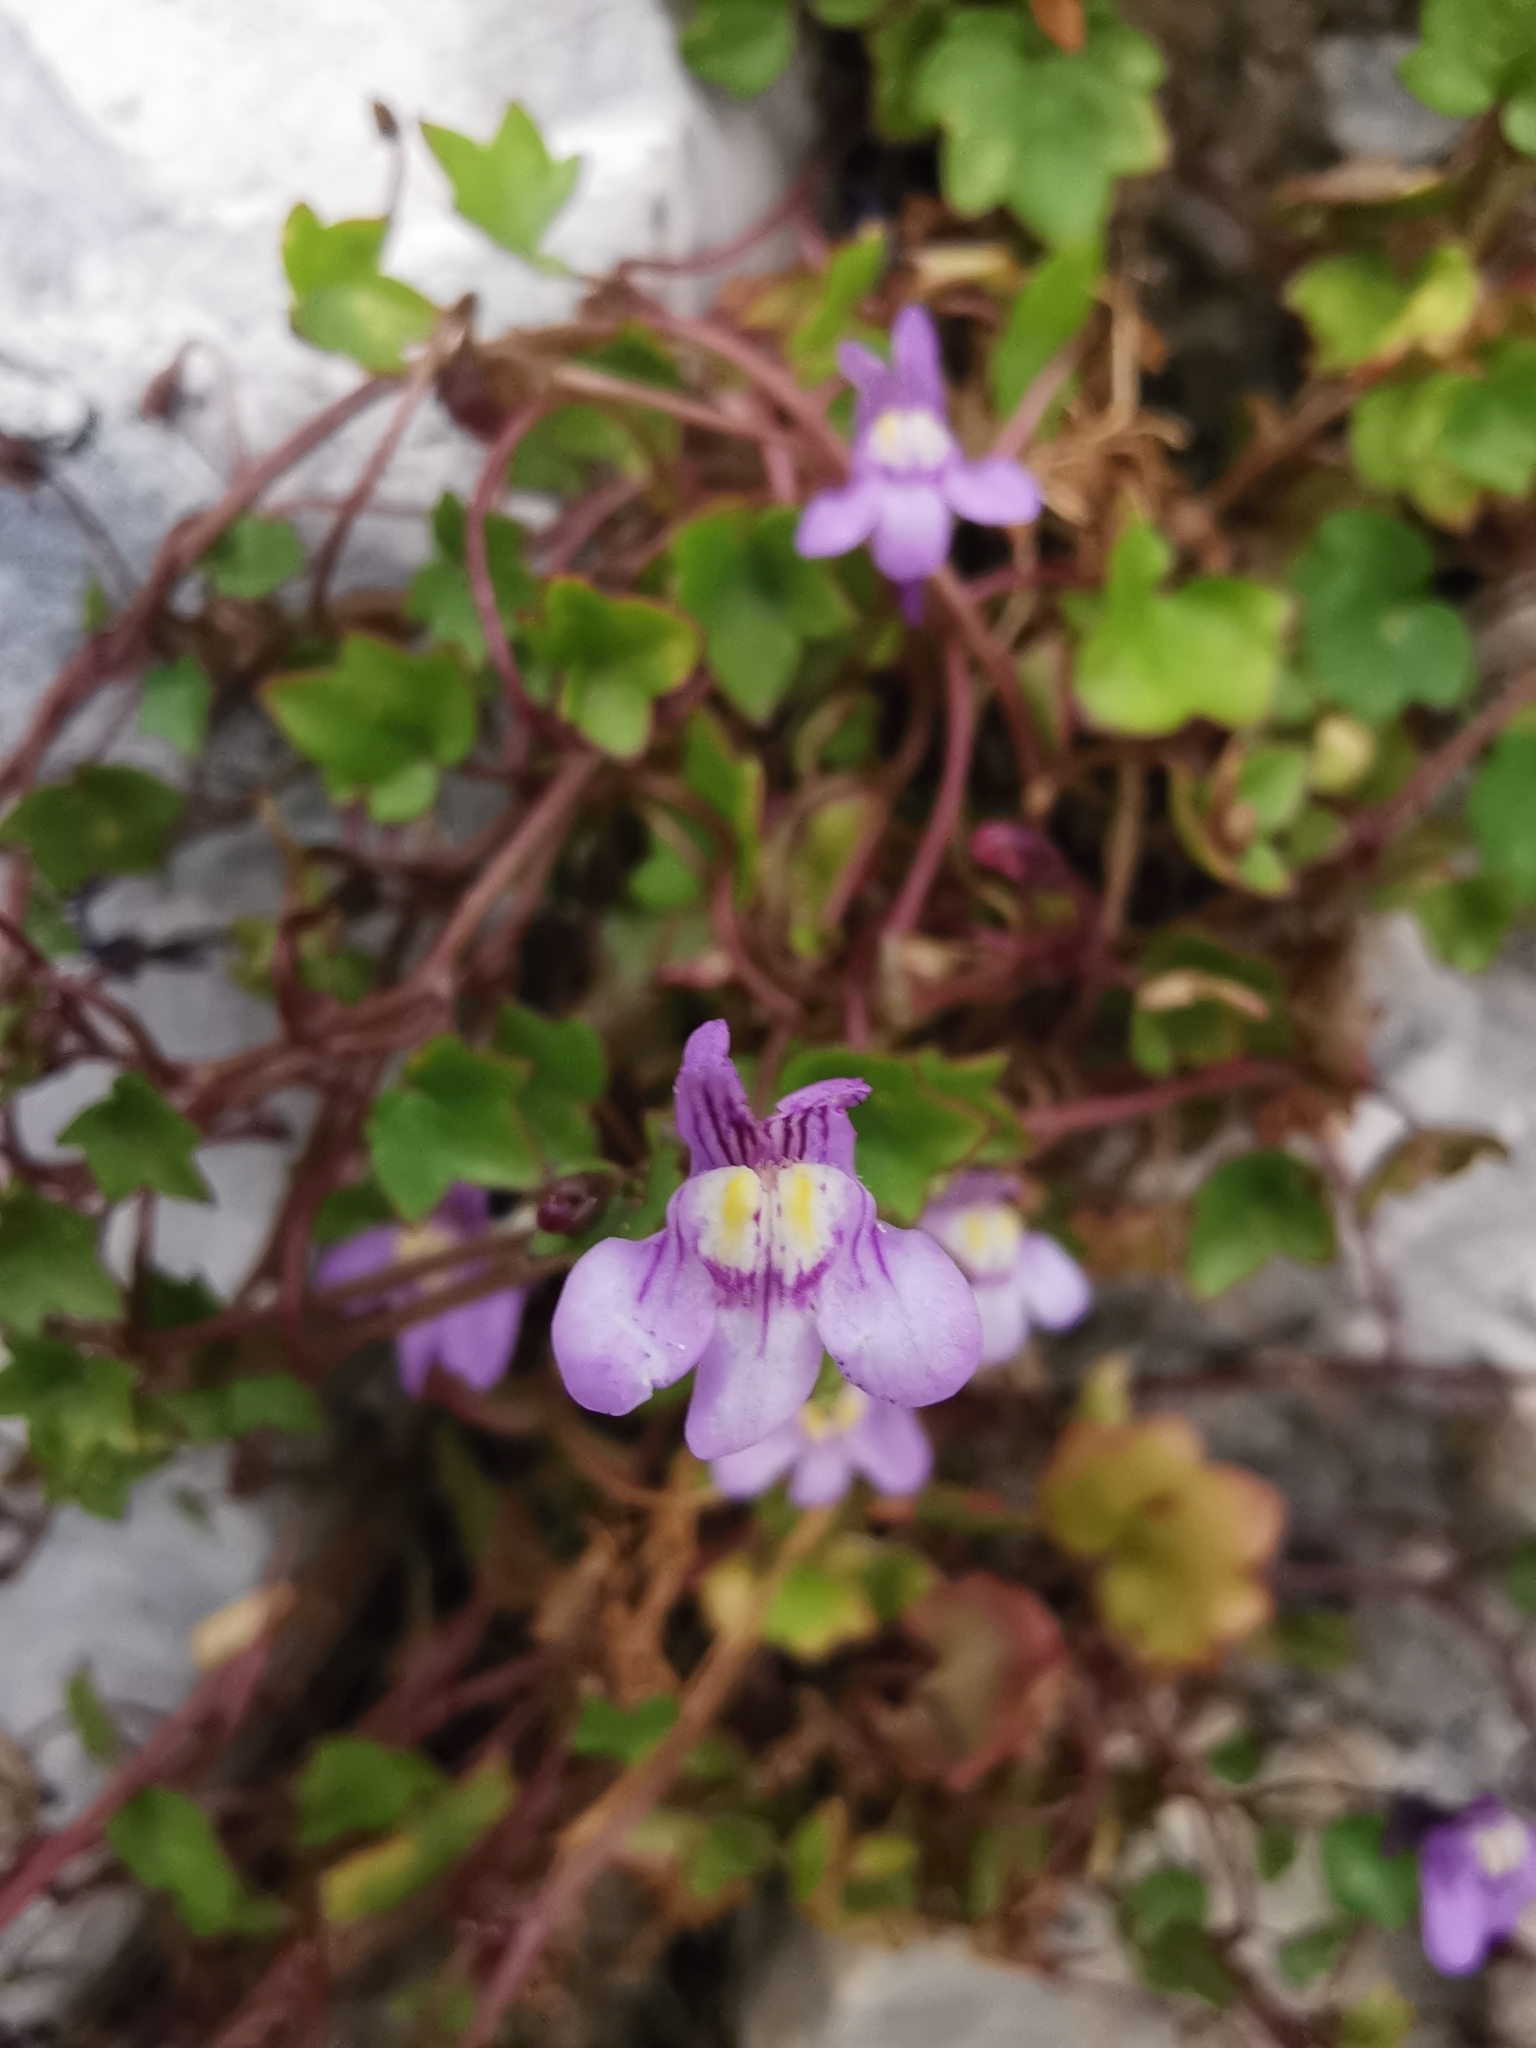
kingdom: Plantae
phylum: Tracheophyta
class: Magnoliopsida
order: Lamiales
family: Plantaginaceae
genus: Cymbalaria
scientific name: Cymbalaria muralis
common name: Ivy-leaved toadflax
